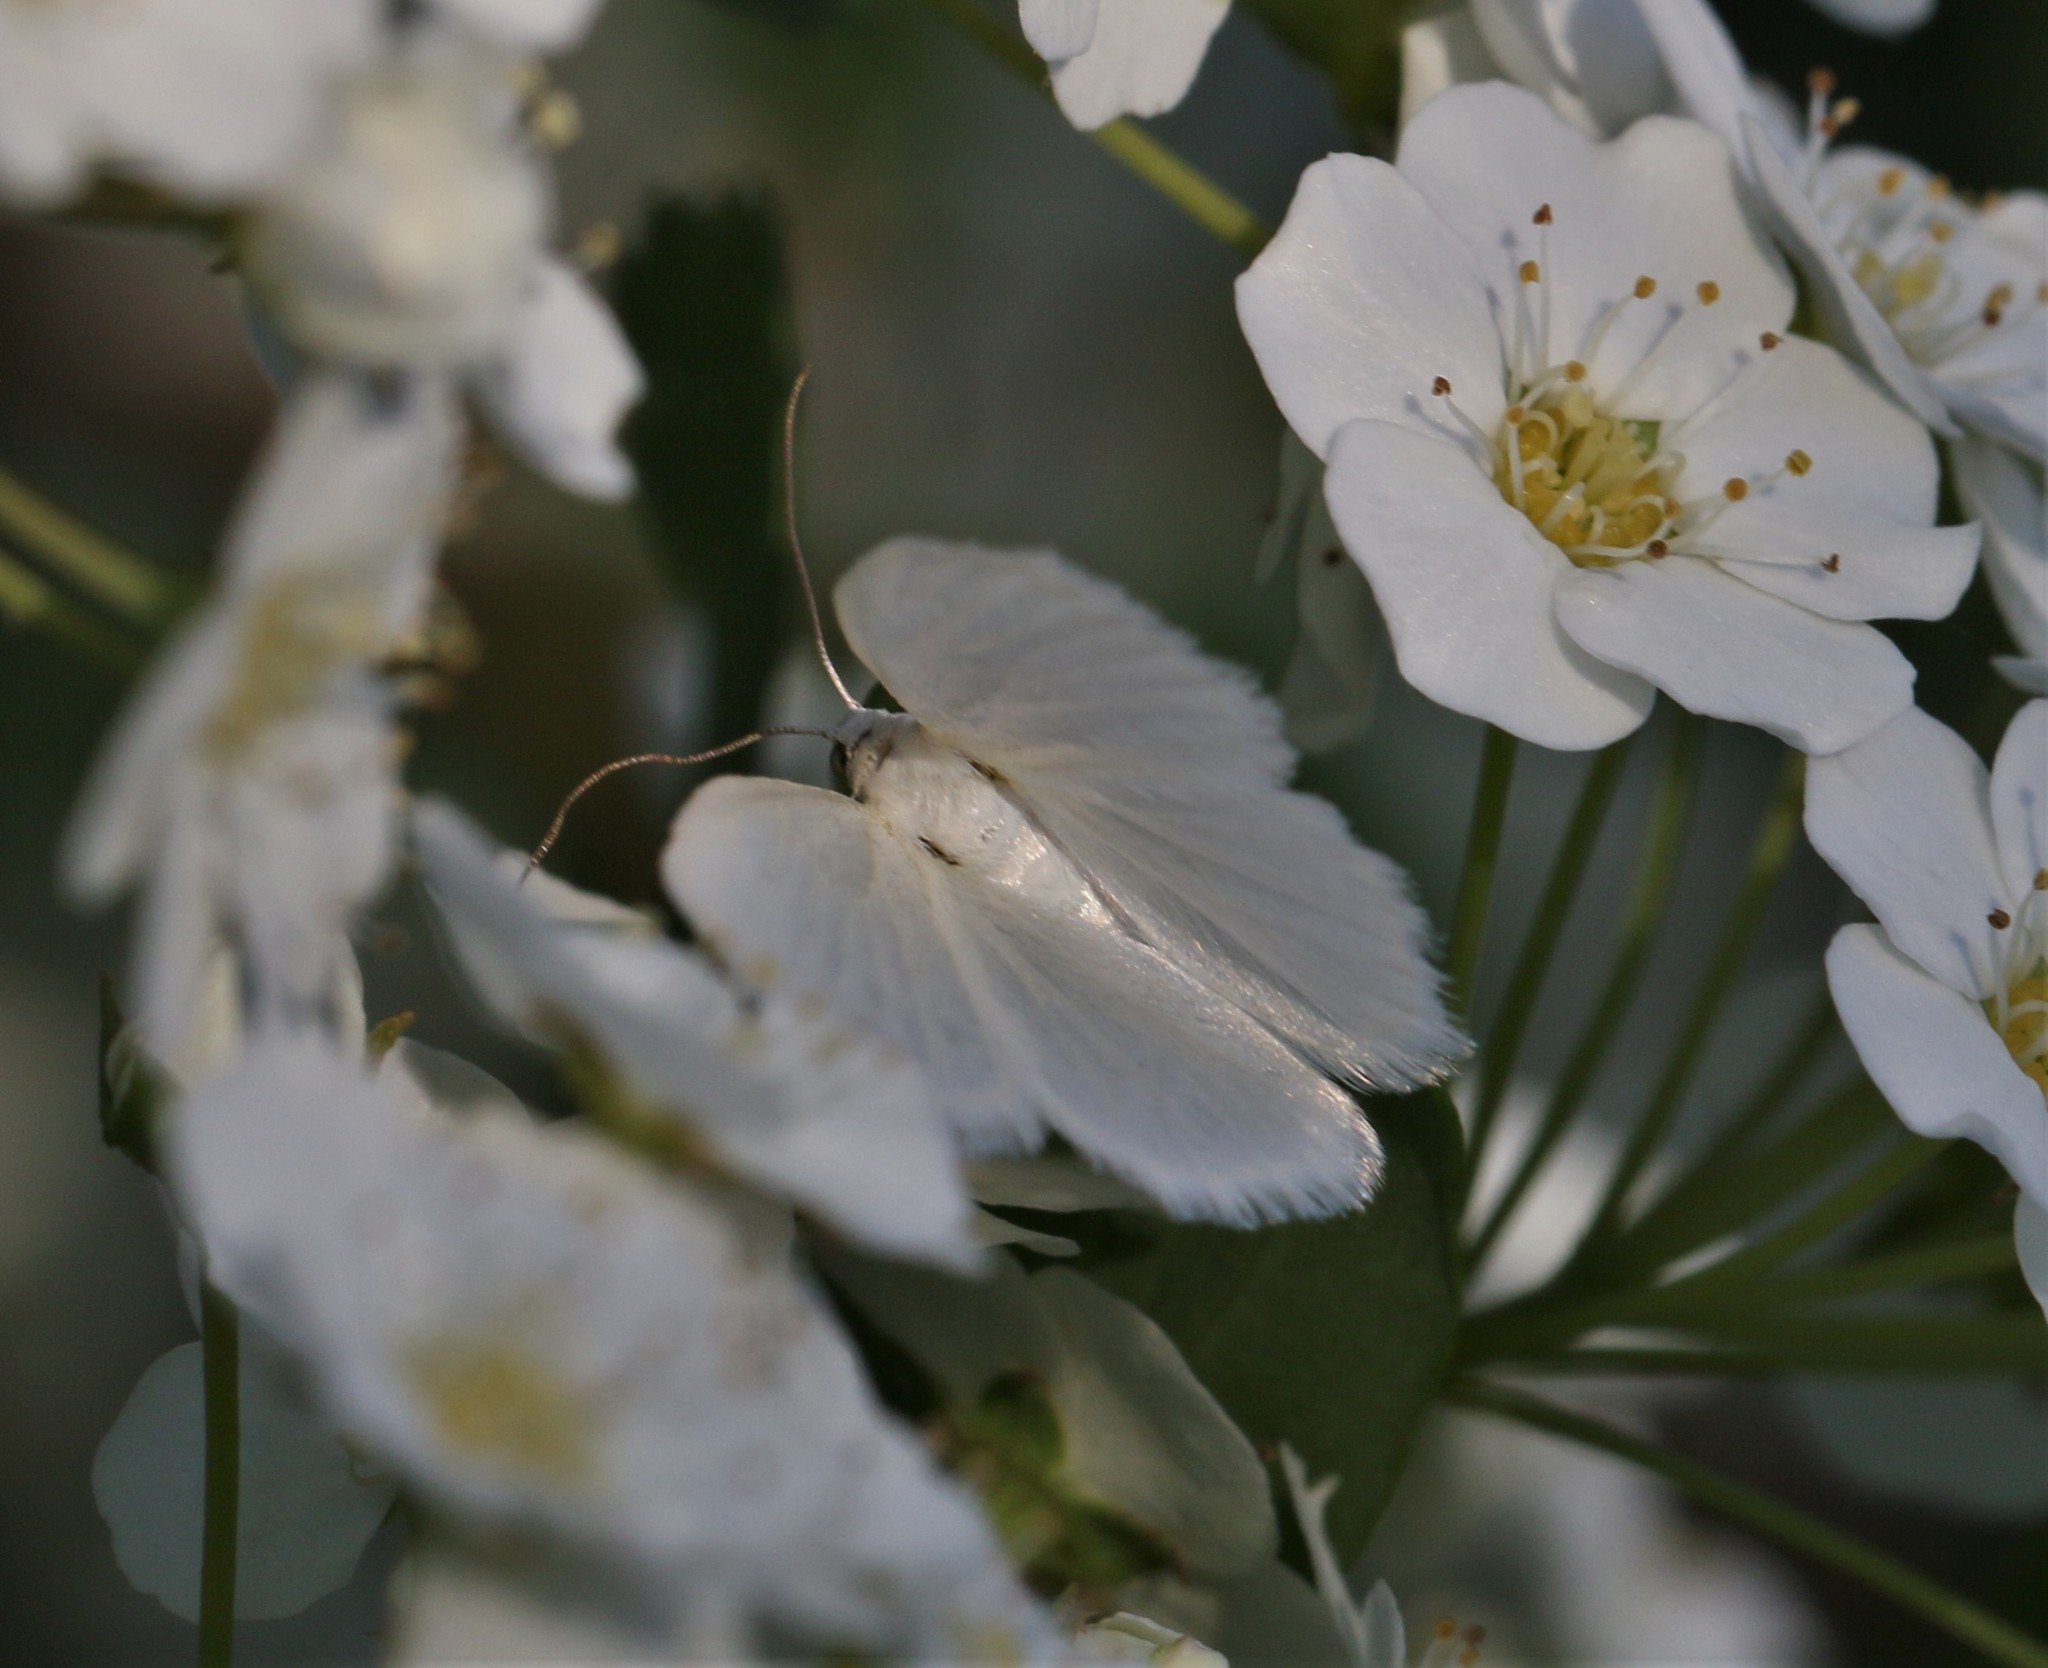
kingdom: Animalia
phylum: Arthropoda
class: Insecta
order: Lepidoptera
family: Geometridae
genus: Lomographa
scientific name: Lomographa vestaliata
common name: White spring moth
